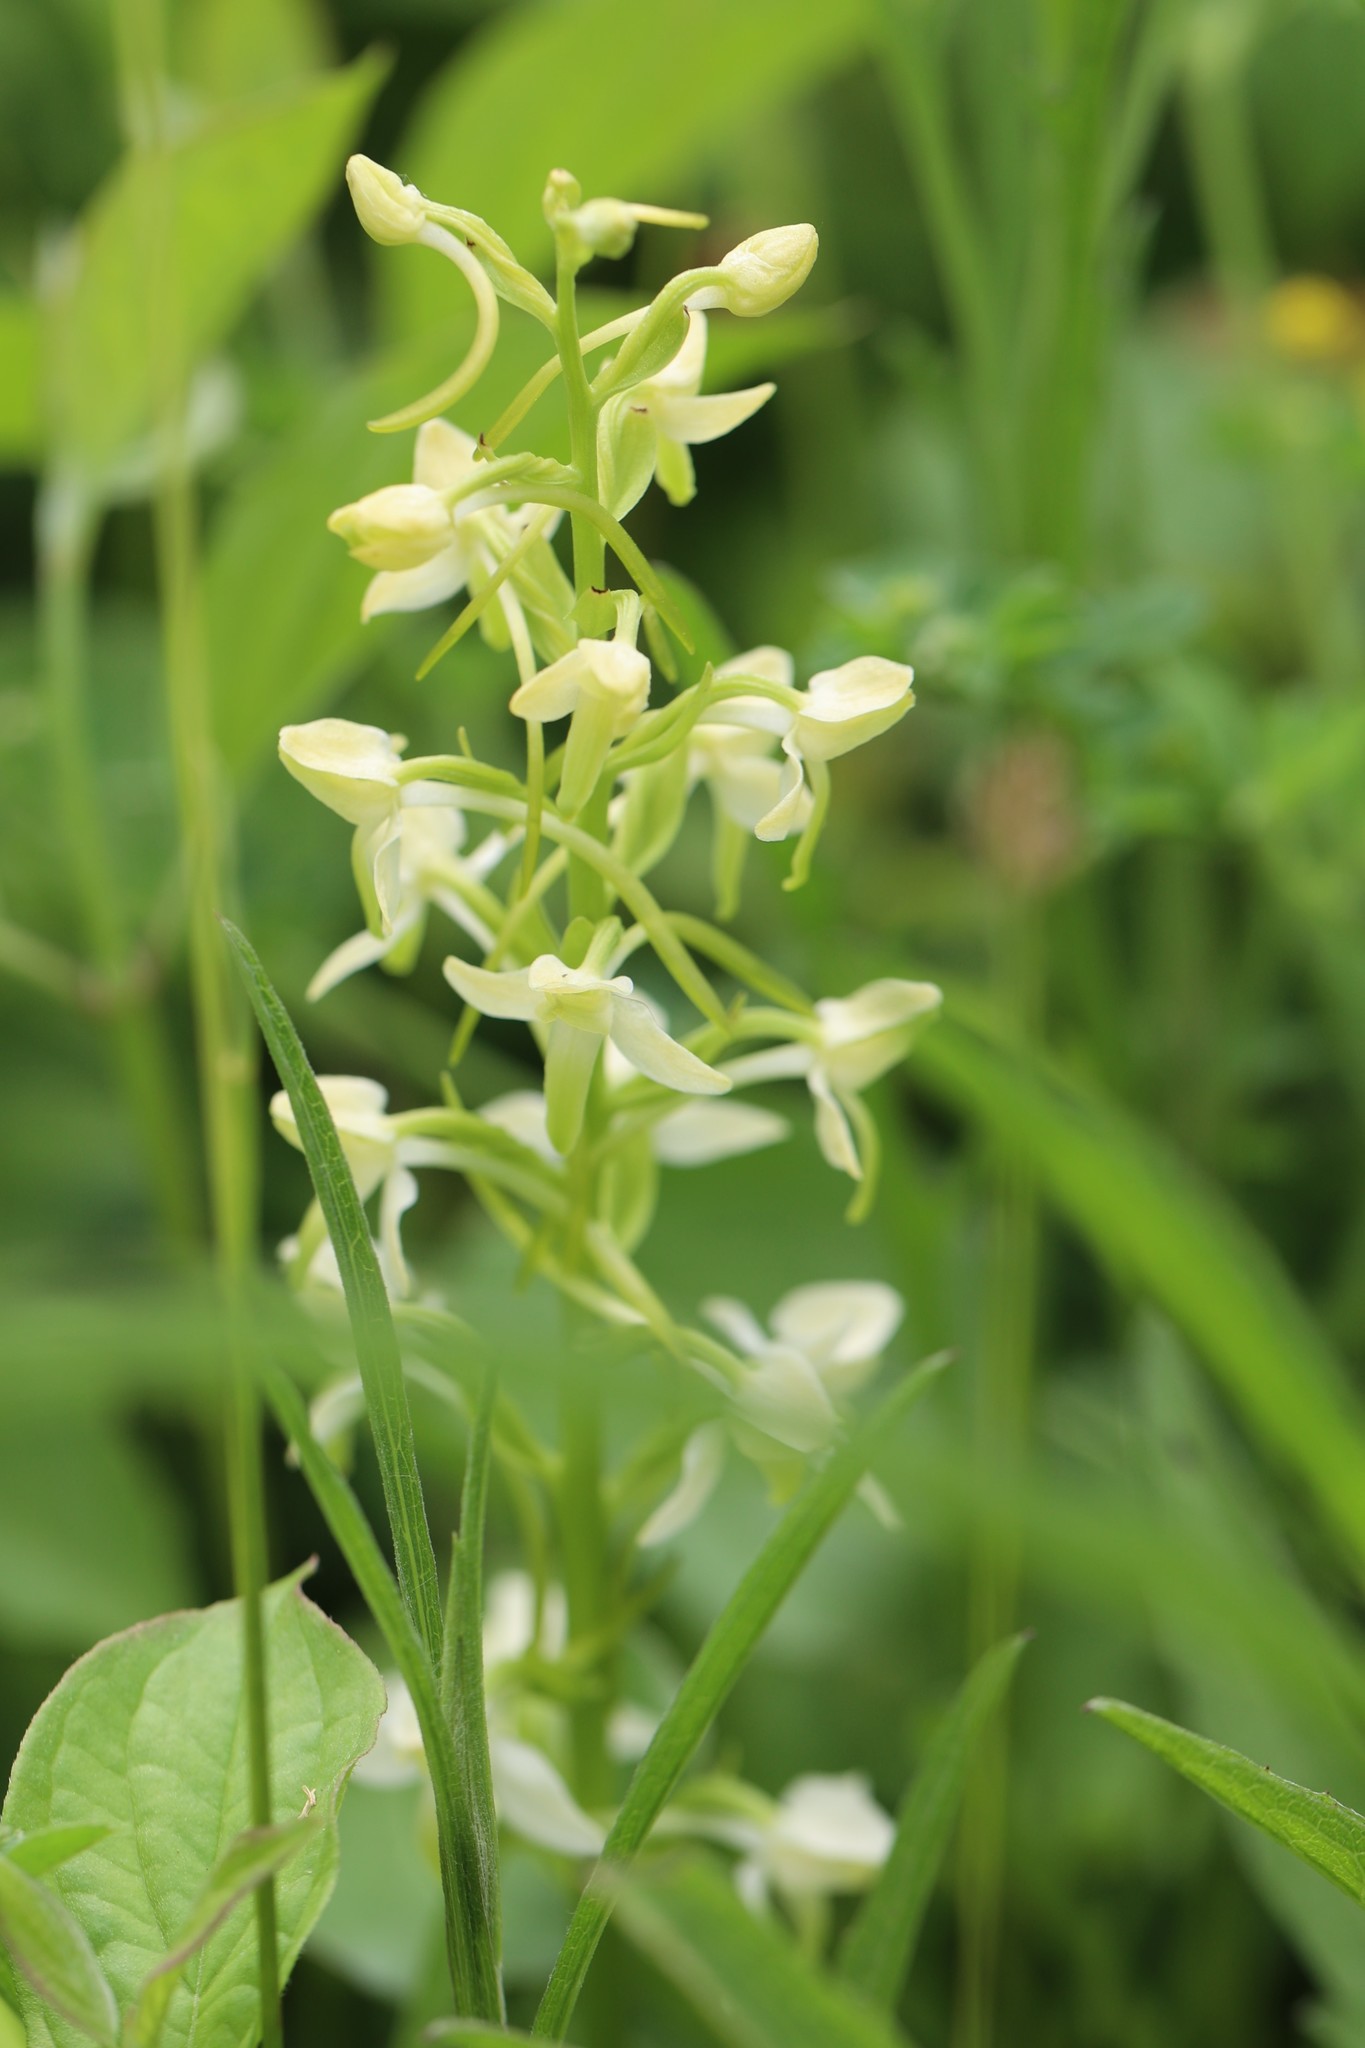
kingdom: Plantae
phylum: Tracheophyta
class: Liliopsida
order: Asparagales
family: Orchidaceae
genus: Platanthera
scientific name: Platanthera chlorantha
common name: Greater butterfly-orchid
